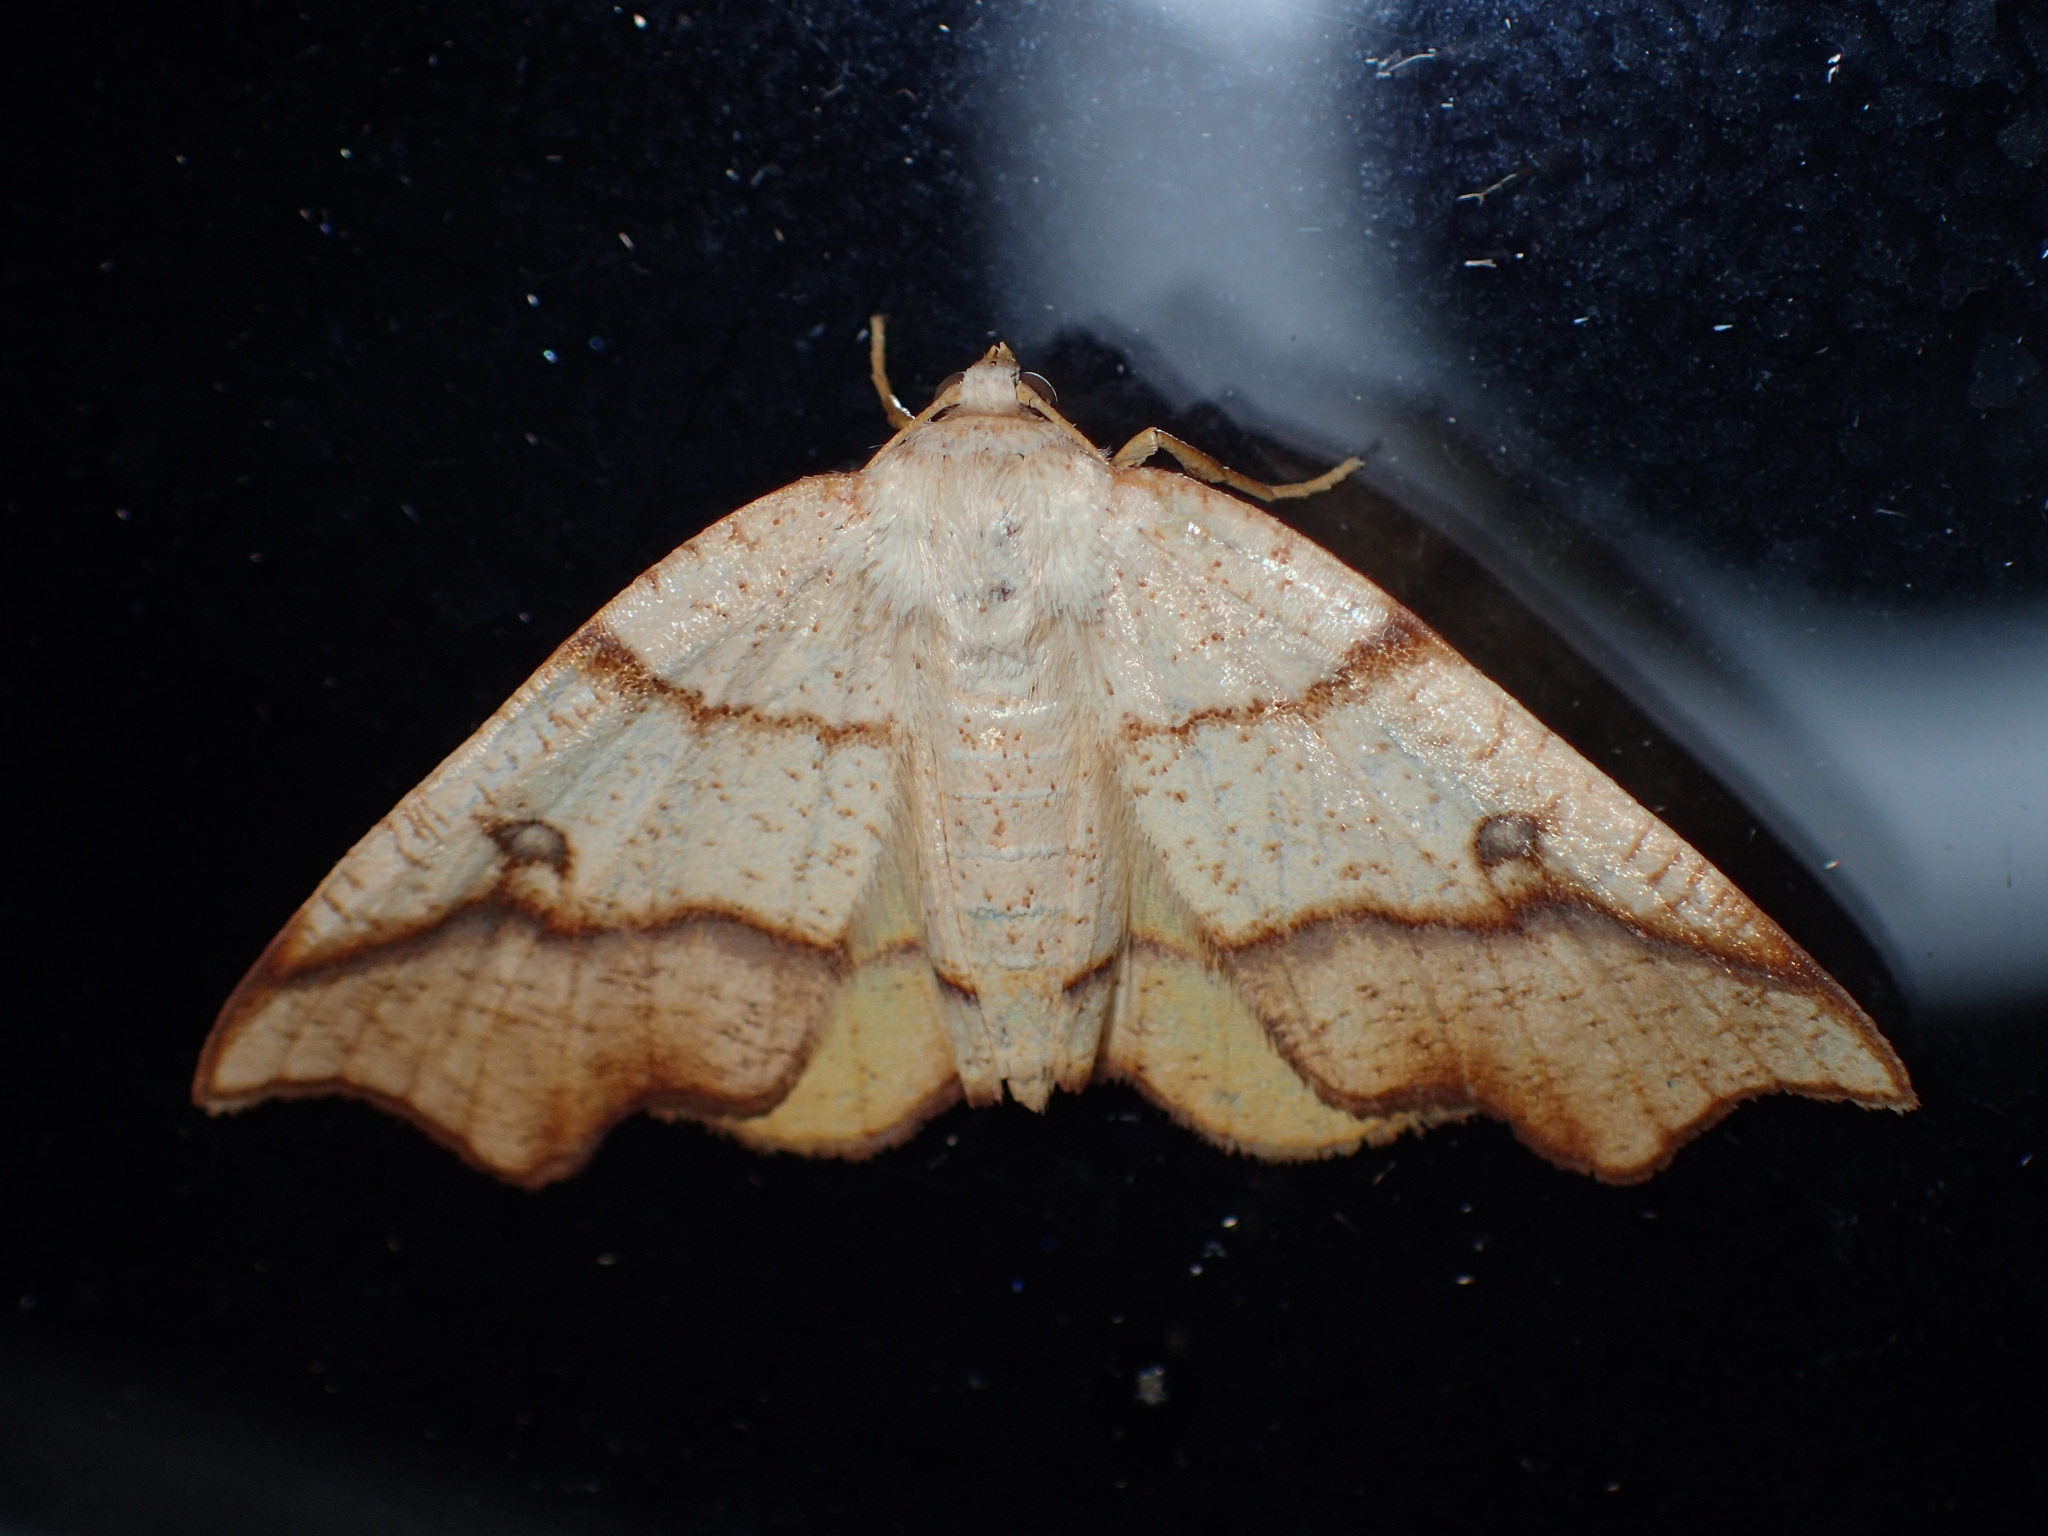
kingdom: Animalia
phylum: Arthropoda
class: Insecta
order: Lepidoptera
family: Geometridae
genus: Plagodis
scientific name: Plagodis alcoolaria
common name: Hollow-spotted plagodis
